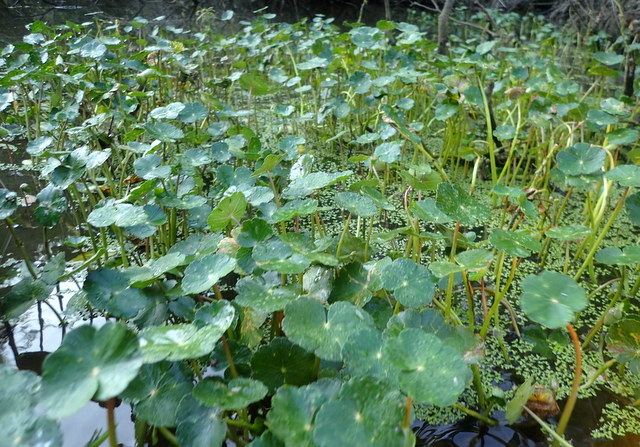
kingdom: Plantae
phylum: Tracheophyta
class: Magnoliopsida
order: Apiales
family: Araliaceae
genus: Hydrocotyle
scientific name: Hydrocotyle ranunculoides
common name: Floating pennywort
